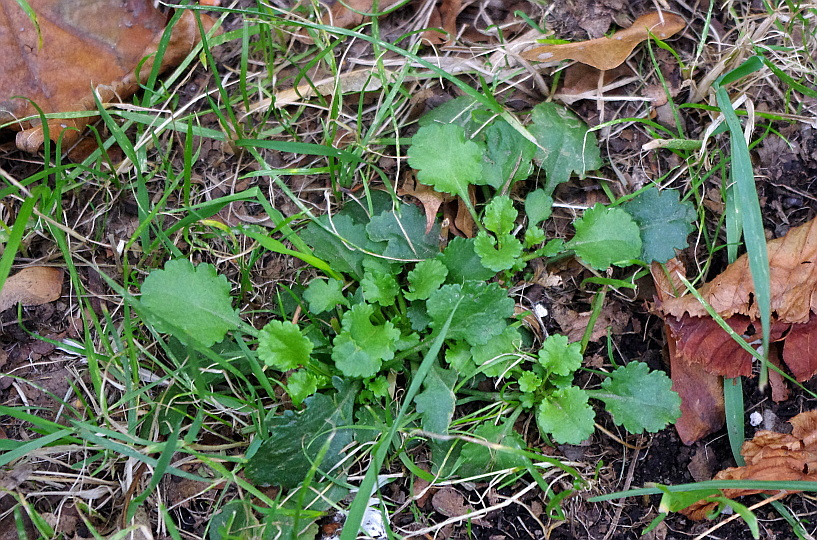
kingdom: Plantae
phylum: Tracheophyta
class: Magnoliopsida
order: Asterales
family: Asteraceae
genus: Leucanthemum
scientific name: Leucanthemum vulgare
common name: Oxeye daisy
